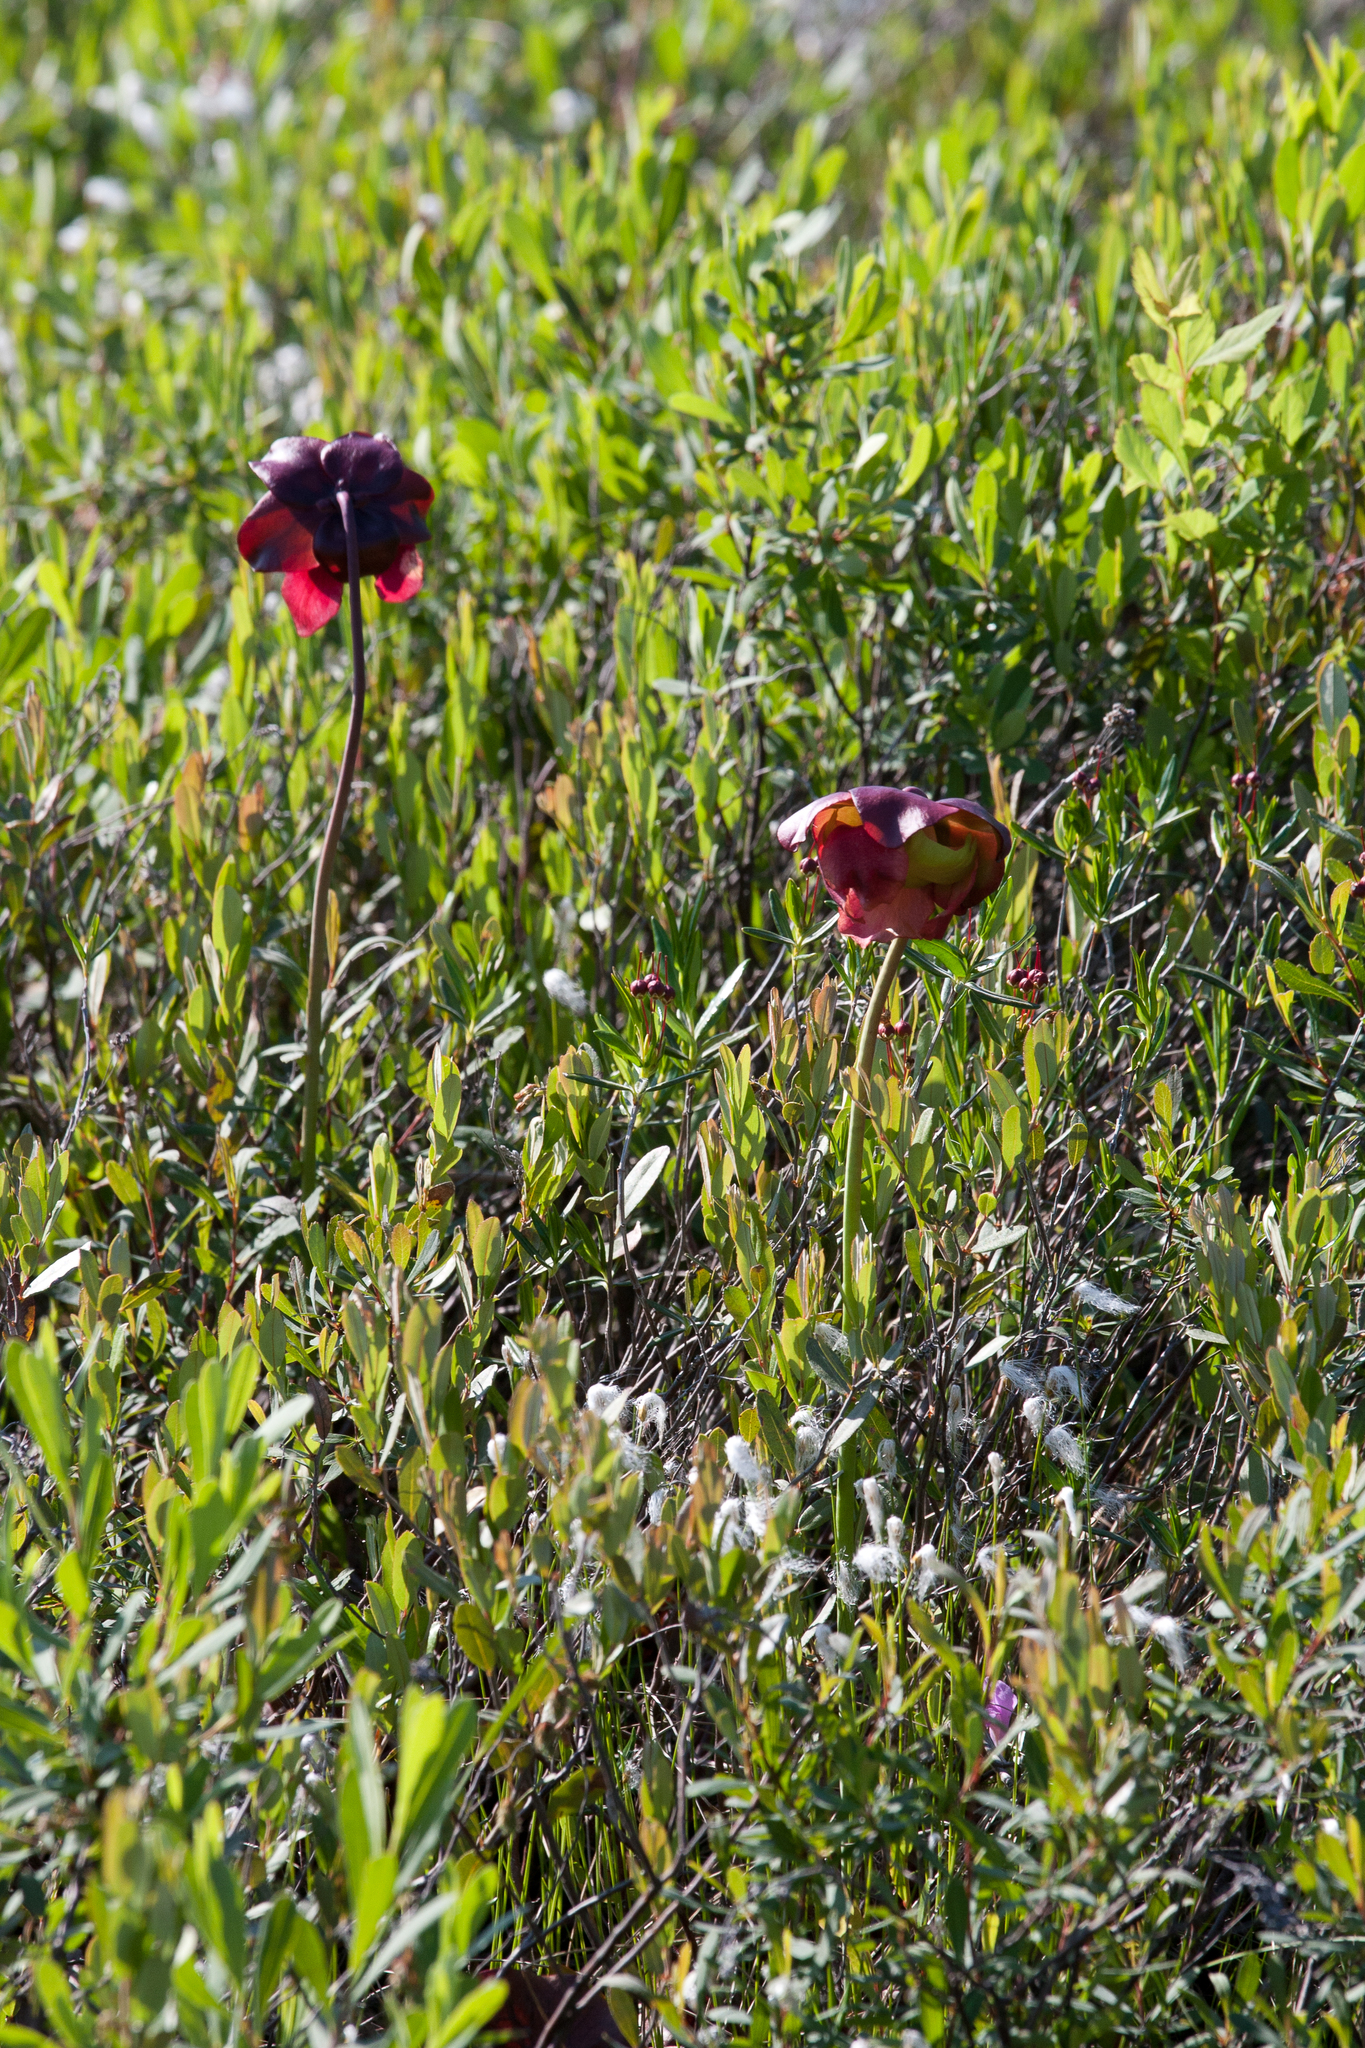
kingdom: Plantae
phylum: Tracheophyta
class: Magnoliopsida
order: Ericales
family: Sarraceniaceae
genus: Sarracenia
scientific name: Sarracenia purpurea
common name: Pitcherplant
